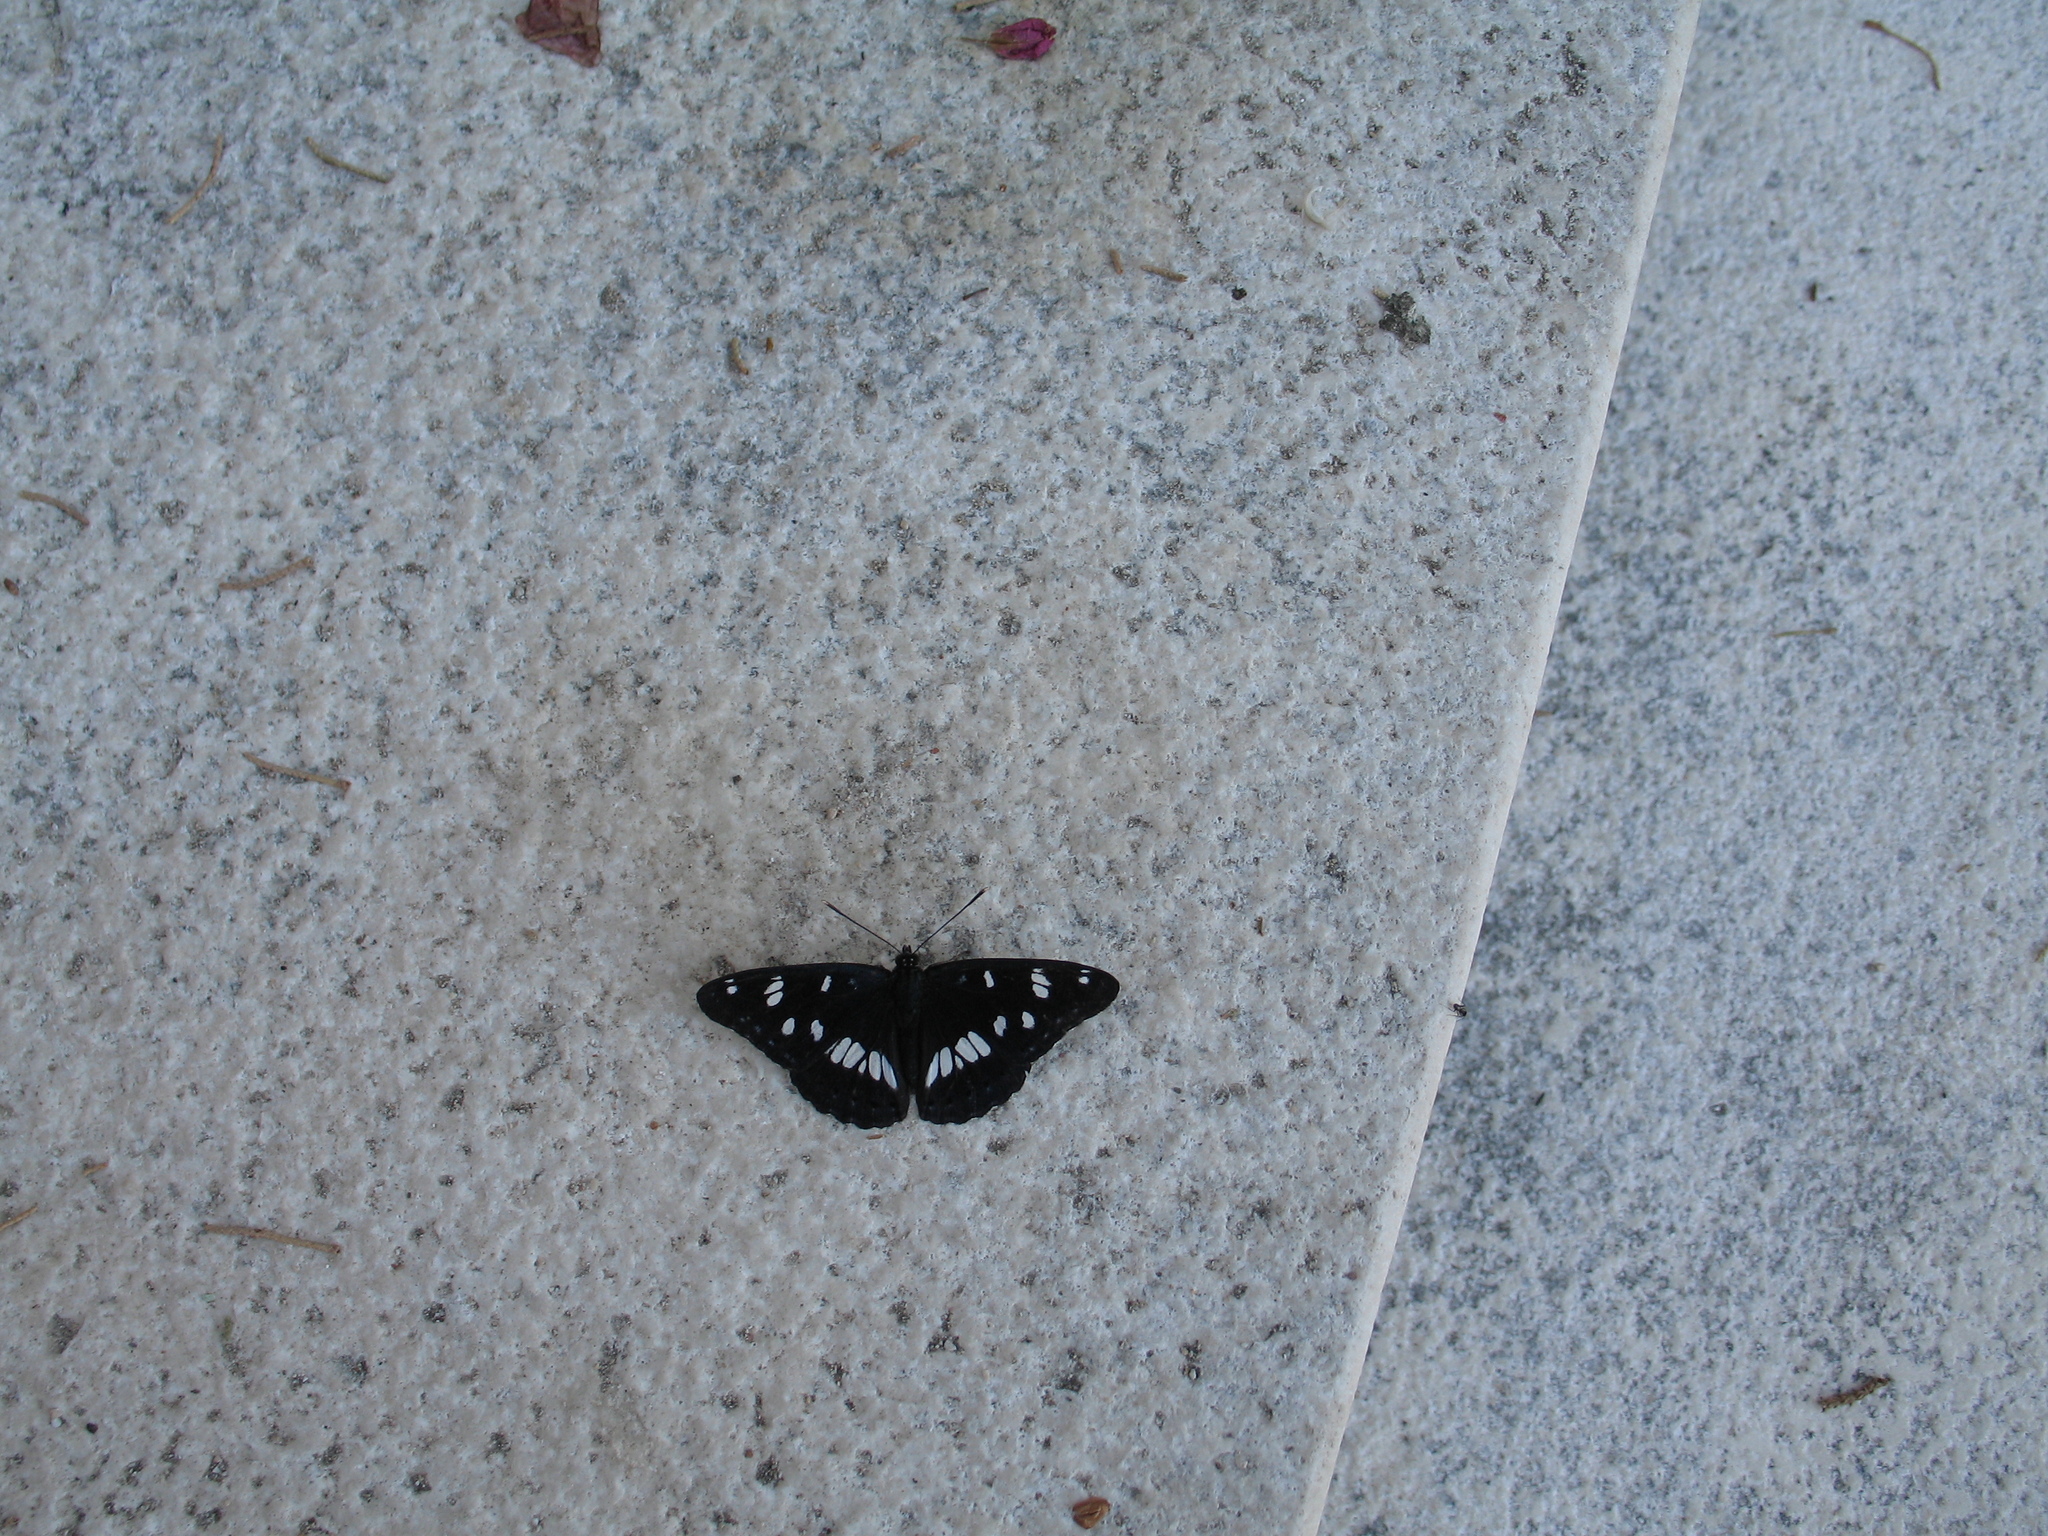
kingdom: Animalia
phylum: Arthropoda
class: Insecta
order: Lepidoptera
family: Nymphalidae
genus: Limenitis
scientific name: Limenitis reducta
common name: Southern white admiral
